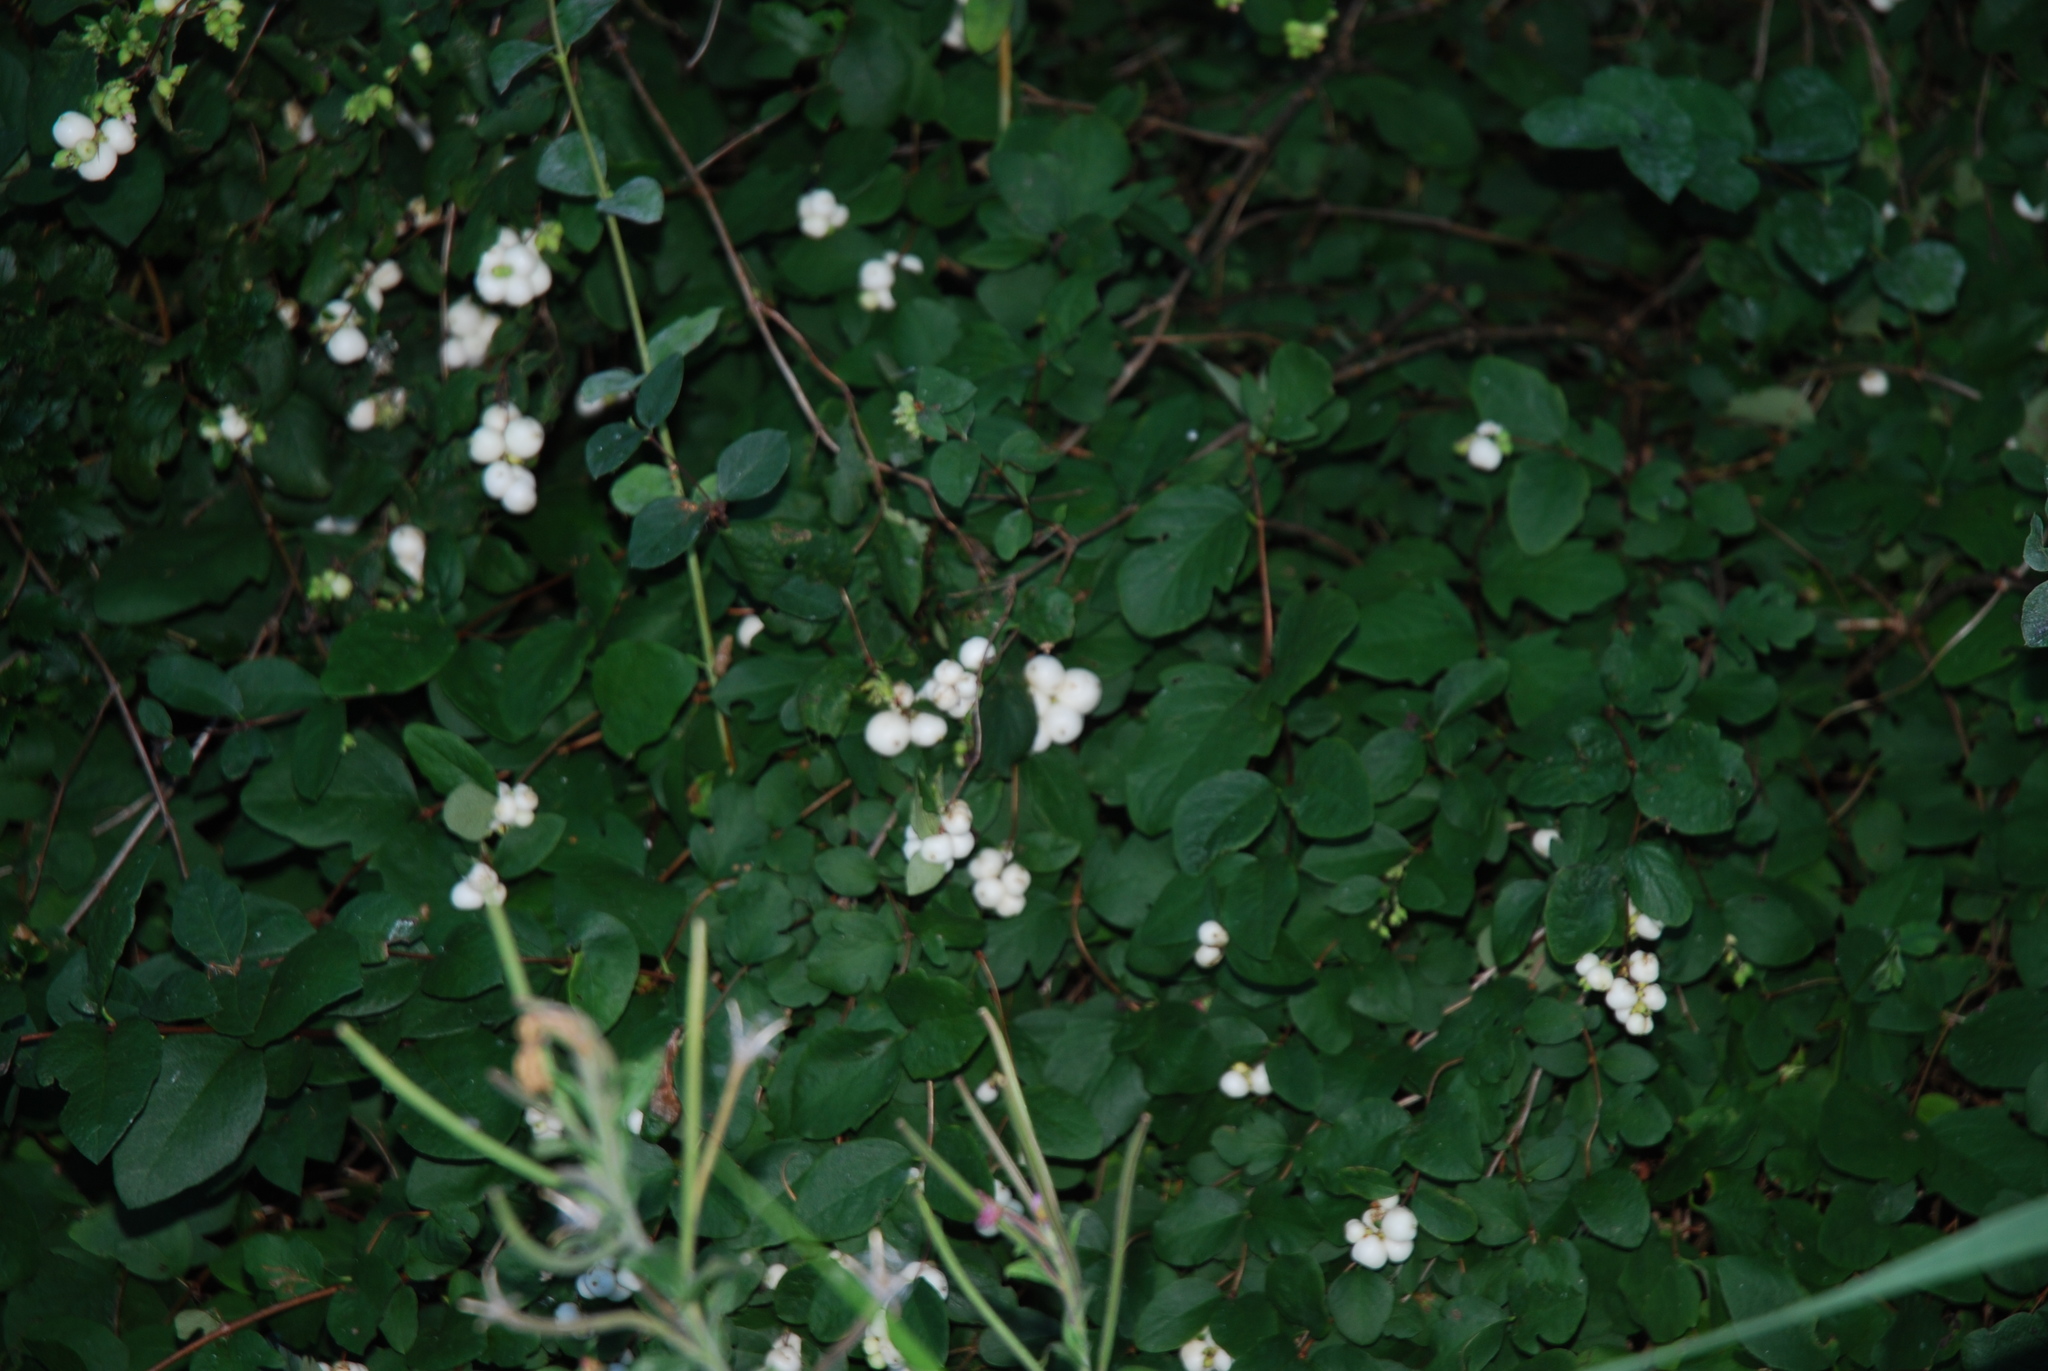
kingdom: Plantae
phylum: Tracheophyta
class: Magnoliopsida
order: Dipsacales
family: Caprifoliaceae
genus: Symphoricarpos
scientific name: Symphoricarpos albus
